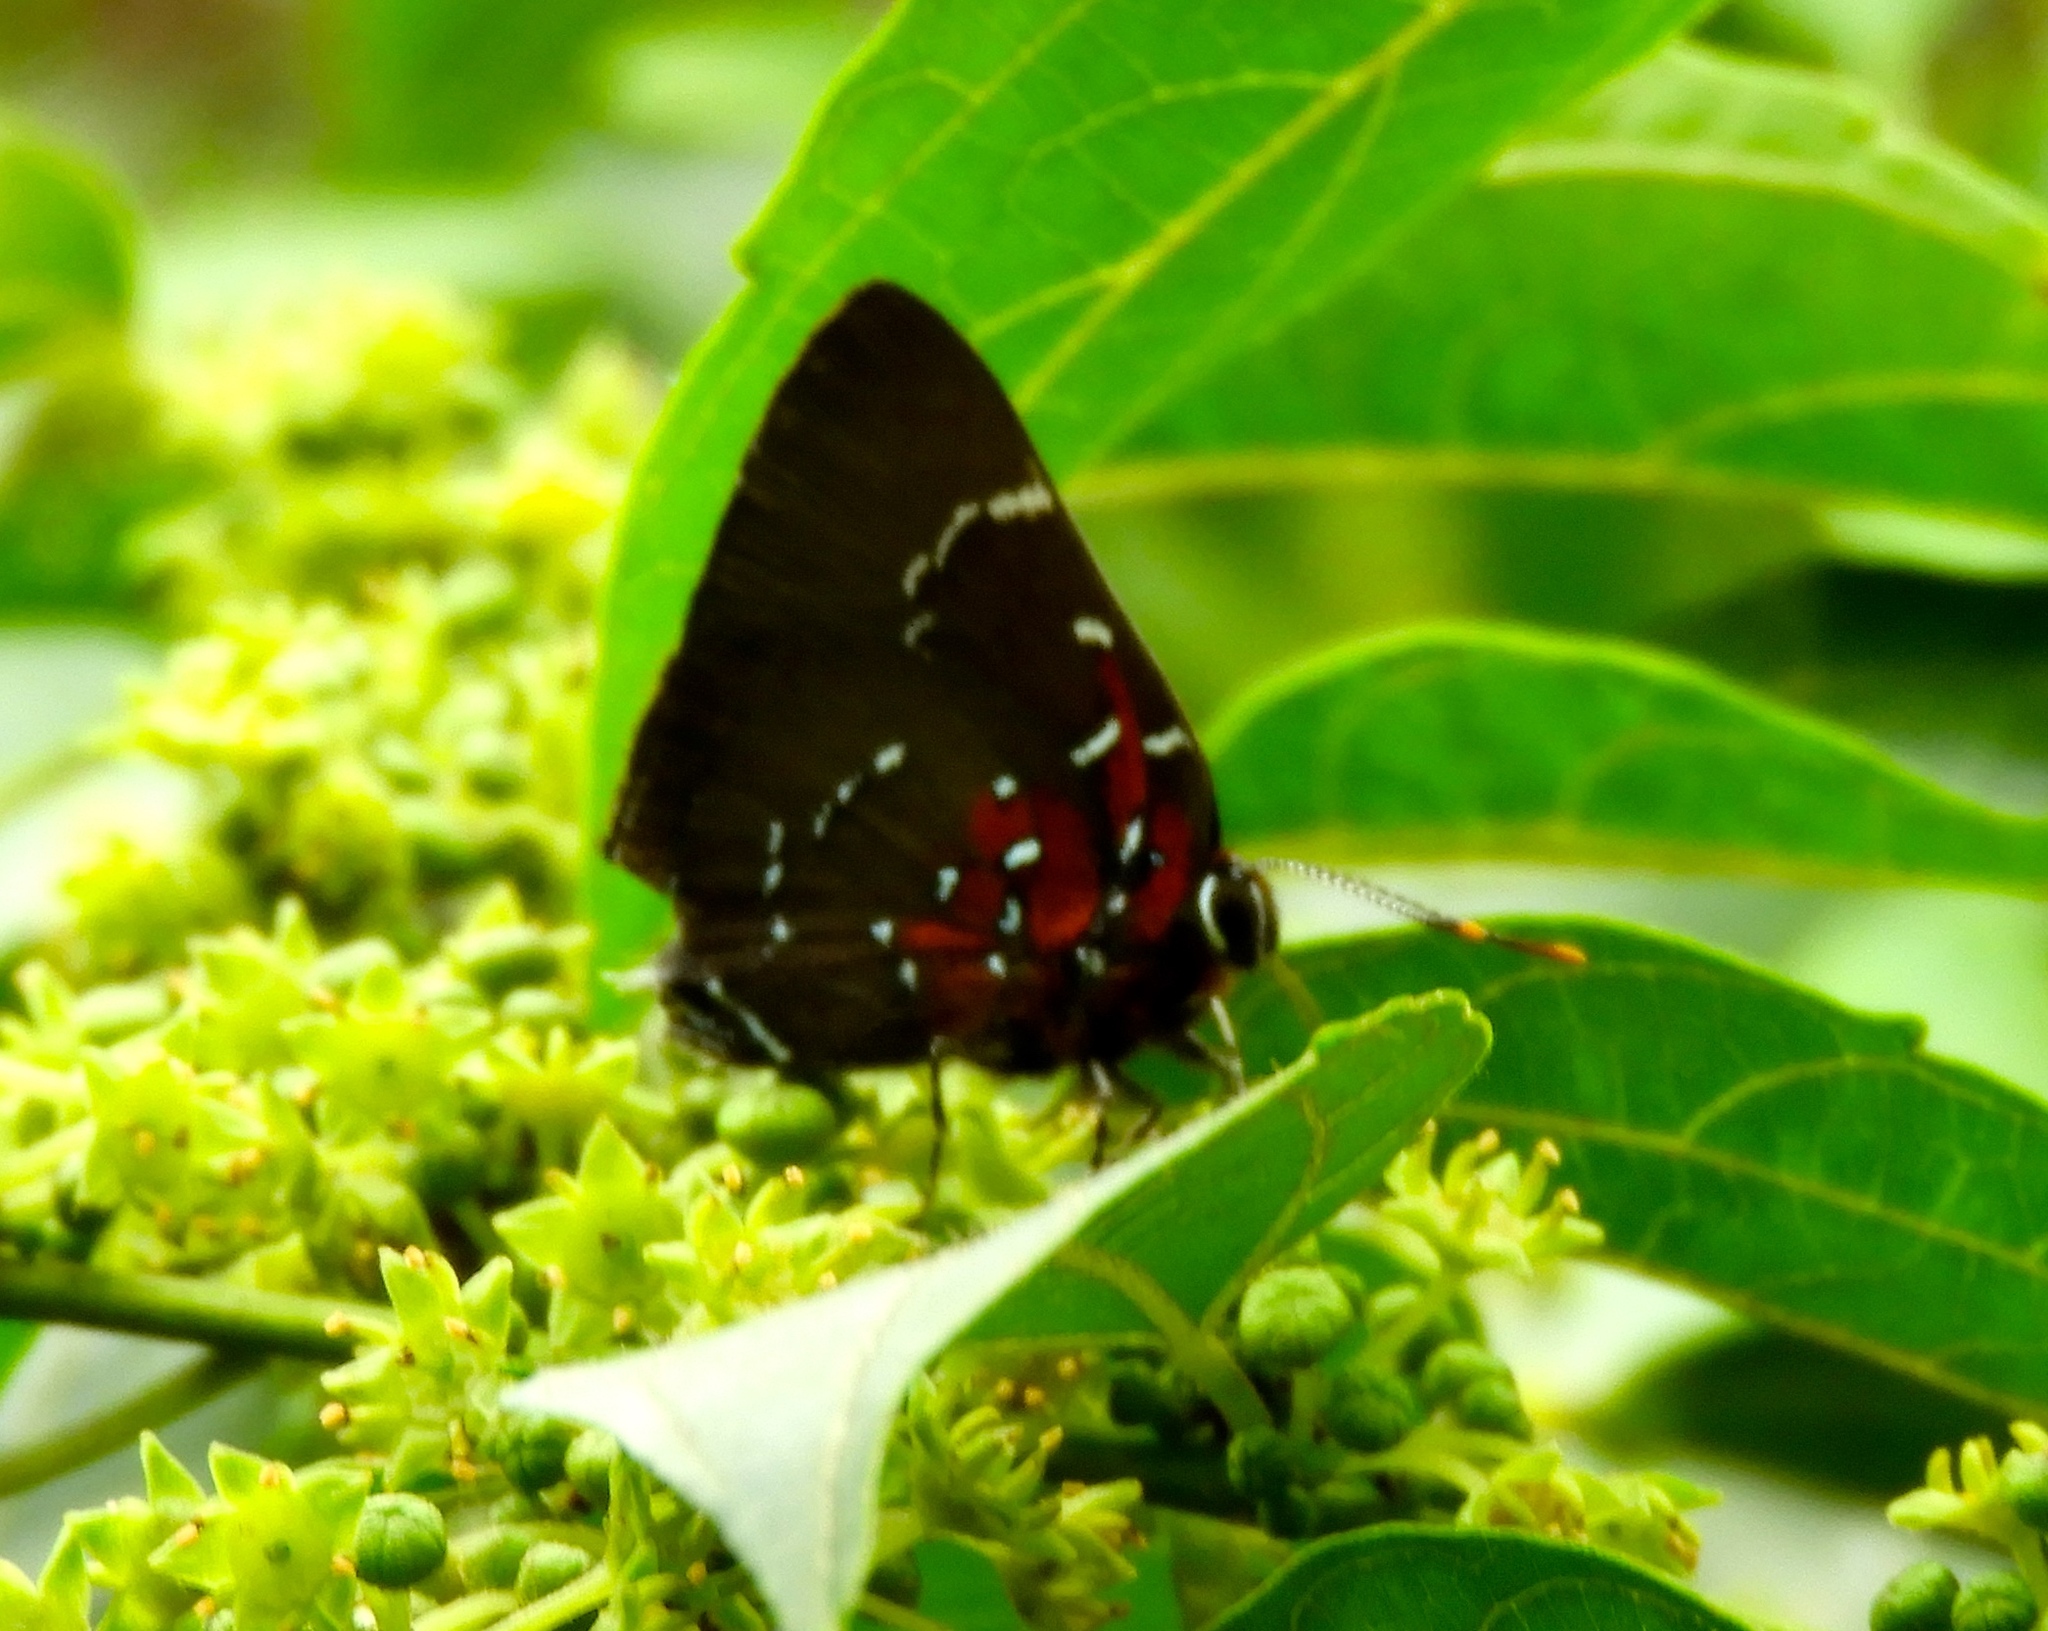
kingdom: Animalia
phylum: Arthropoda
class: Insecta
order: Lepidoptera
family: Lycaenidae
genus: Atlides
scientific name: Atlides Brangas neora
